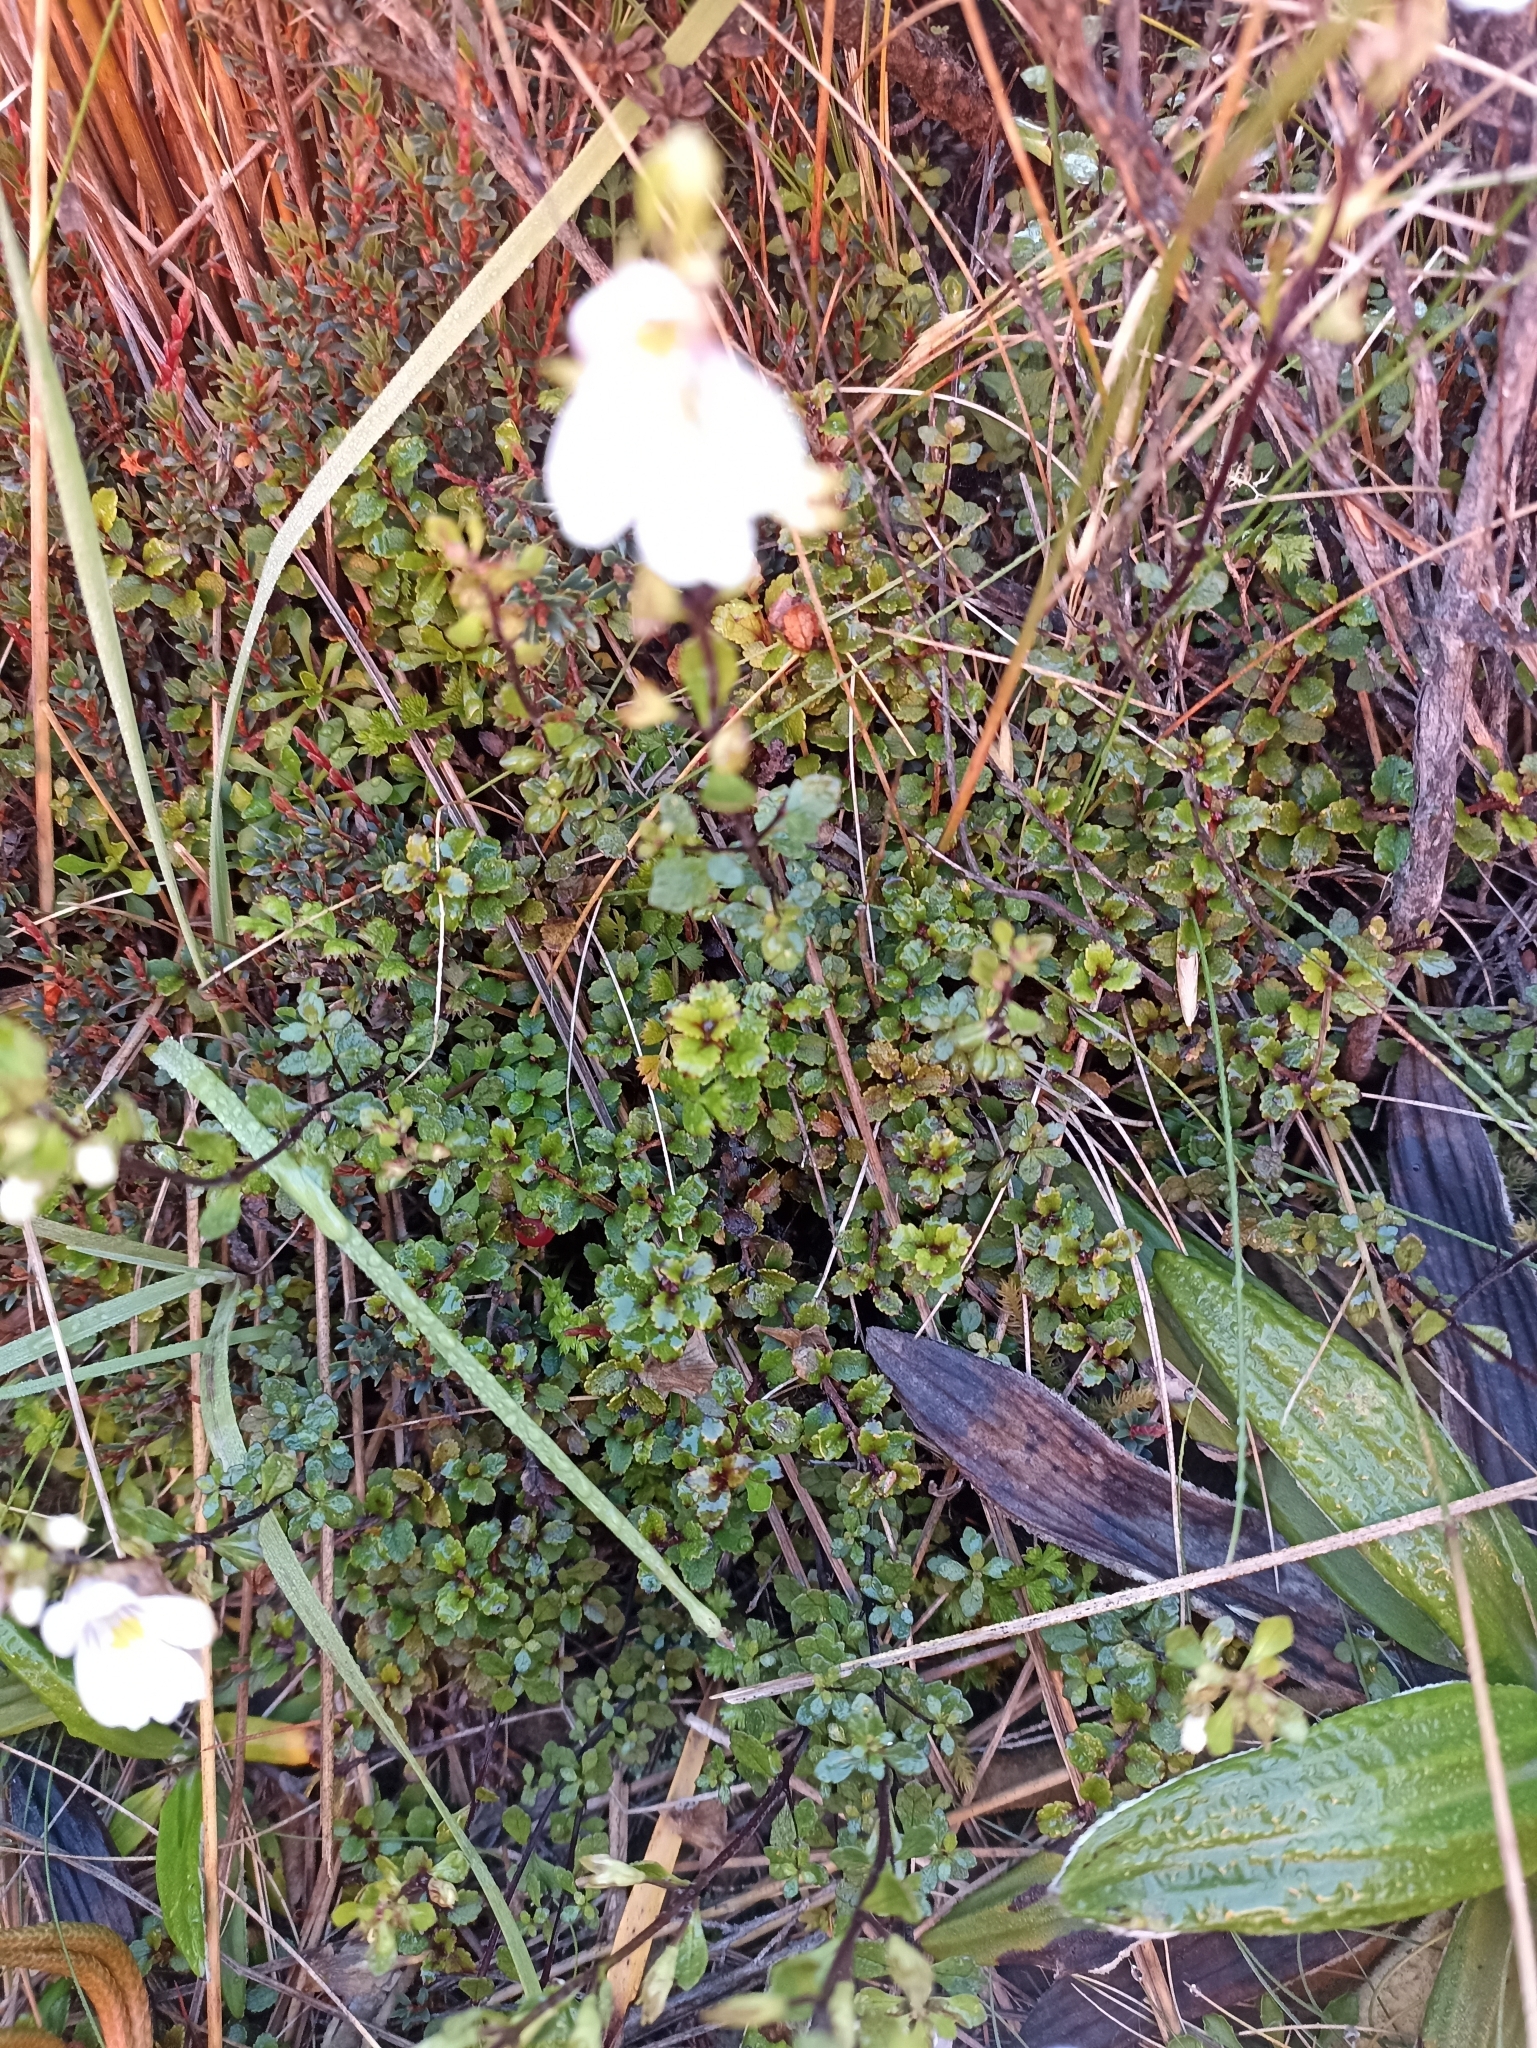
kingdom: Plantae
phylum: Tracheophyta
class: Magnoliopsida
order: Lamiales
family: Orobanchaceae
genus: Euphrasia
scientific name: Euphrasia cuneata
